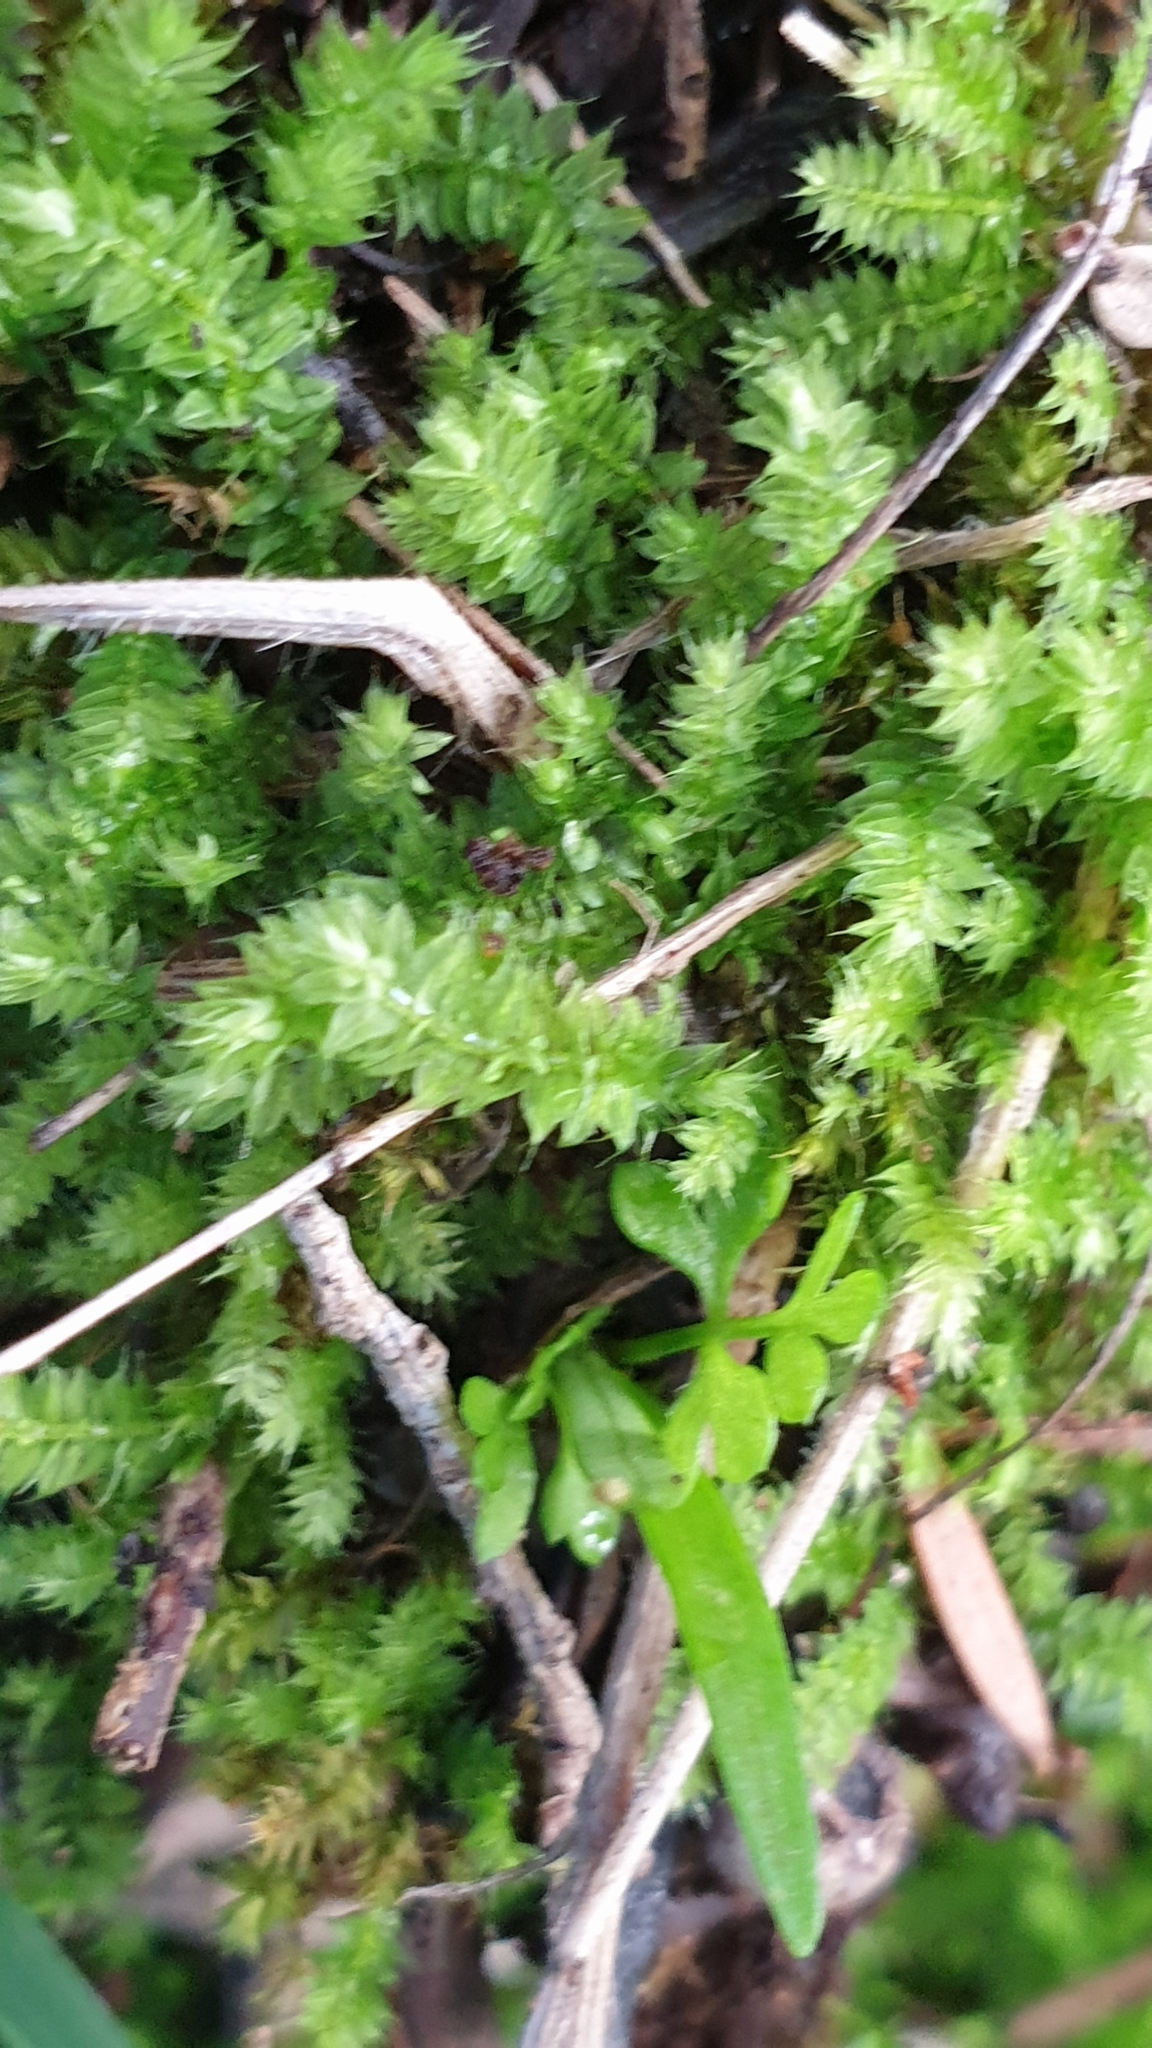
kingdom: Plantae
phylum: Bryophyta
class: Bryopsida
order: Hypnodendrales
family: Racopilaceae
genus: Racopilum
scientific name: Racopilum cuspidigerum
